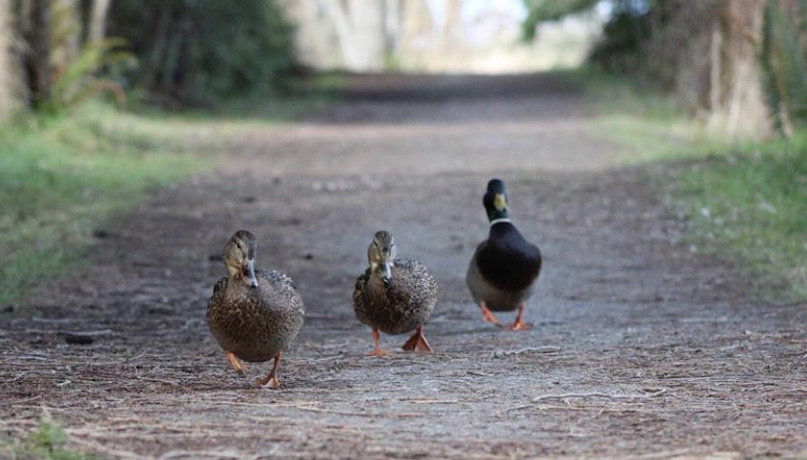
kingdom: Animalia
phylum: Chordata
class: Aves
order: Anseriformes
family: Anatidae
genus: Anas
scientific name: Anas platyrhynchos
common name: Mallard
